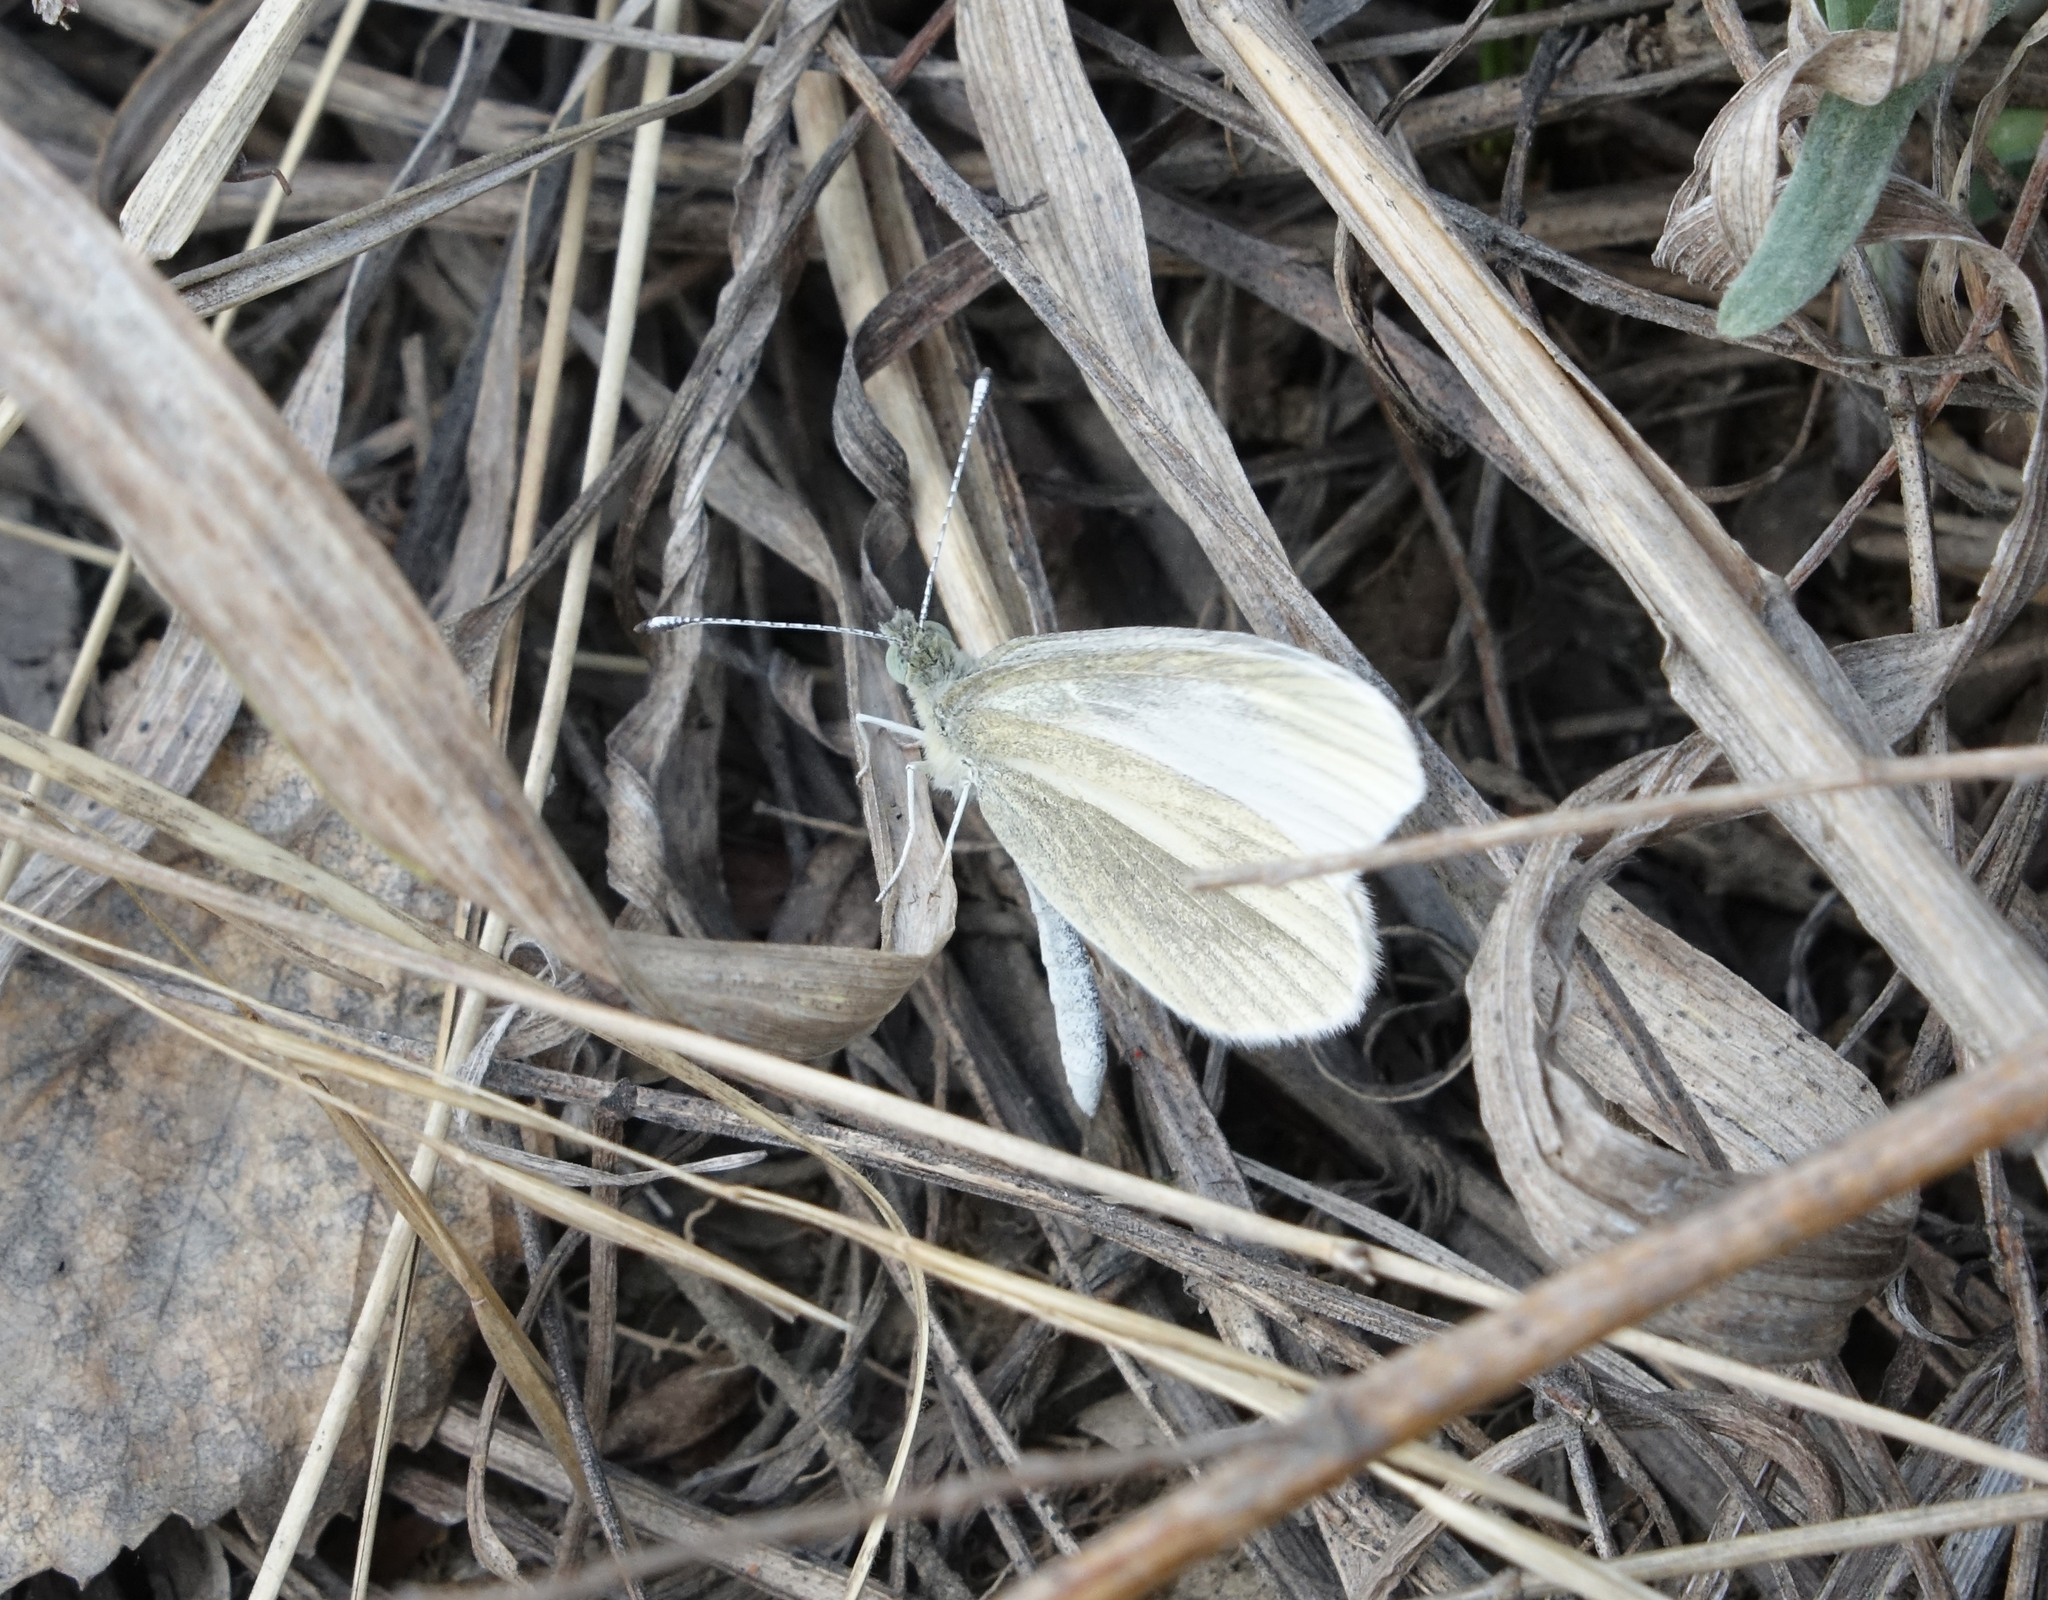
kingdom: Animalia
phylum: Arthropoda
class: Insecta
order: Lepidoptera
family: Pieridae
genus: Leptidea
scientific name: Leptidea amurensis
